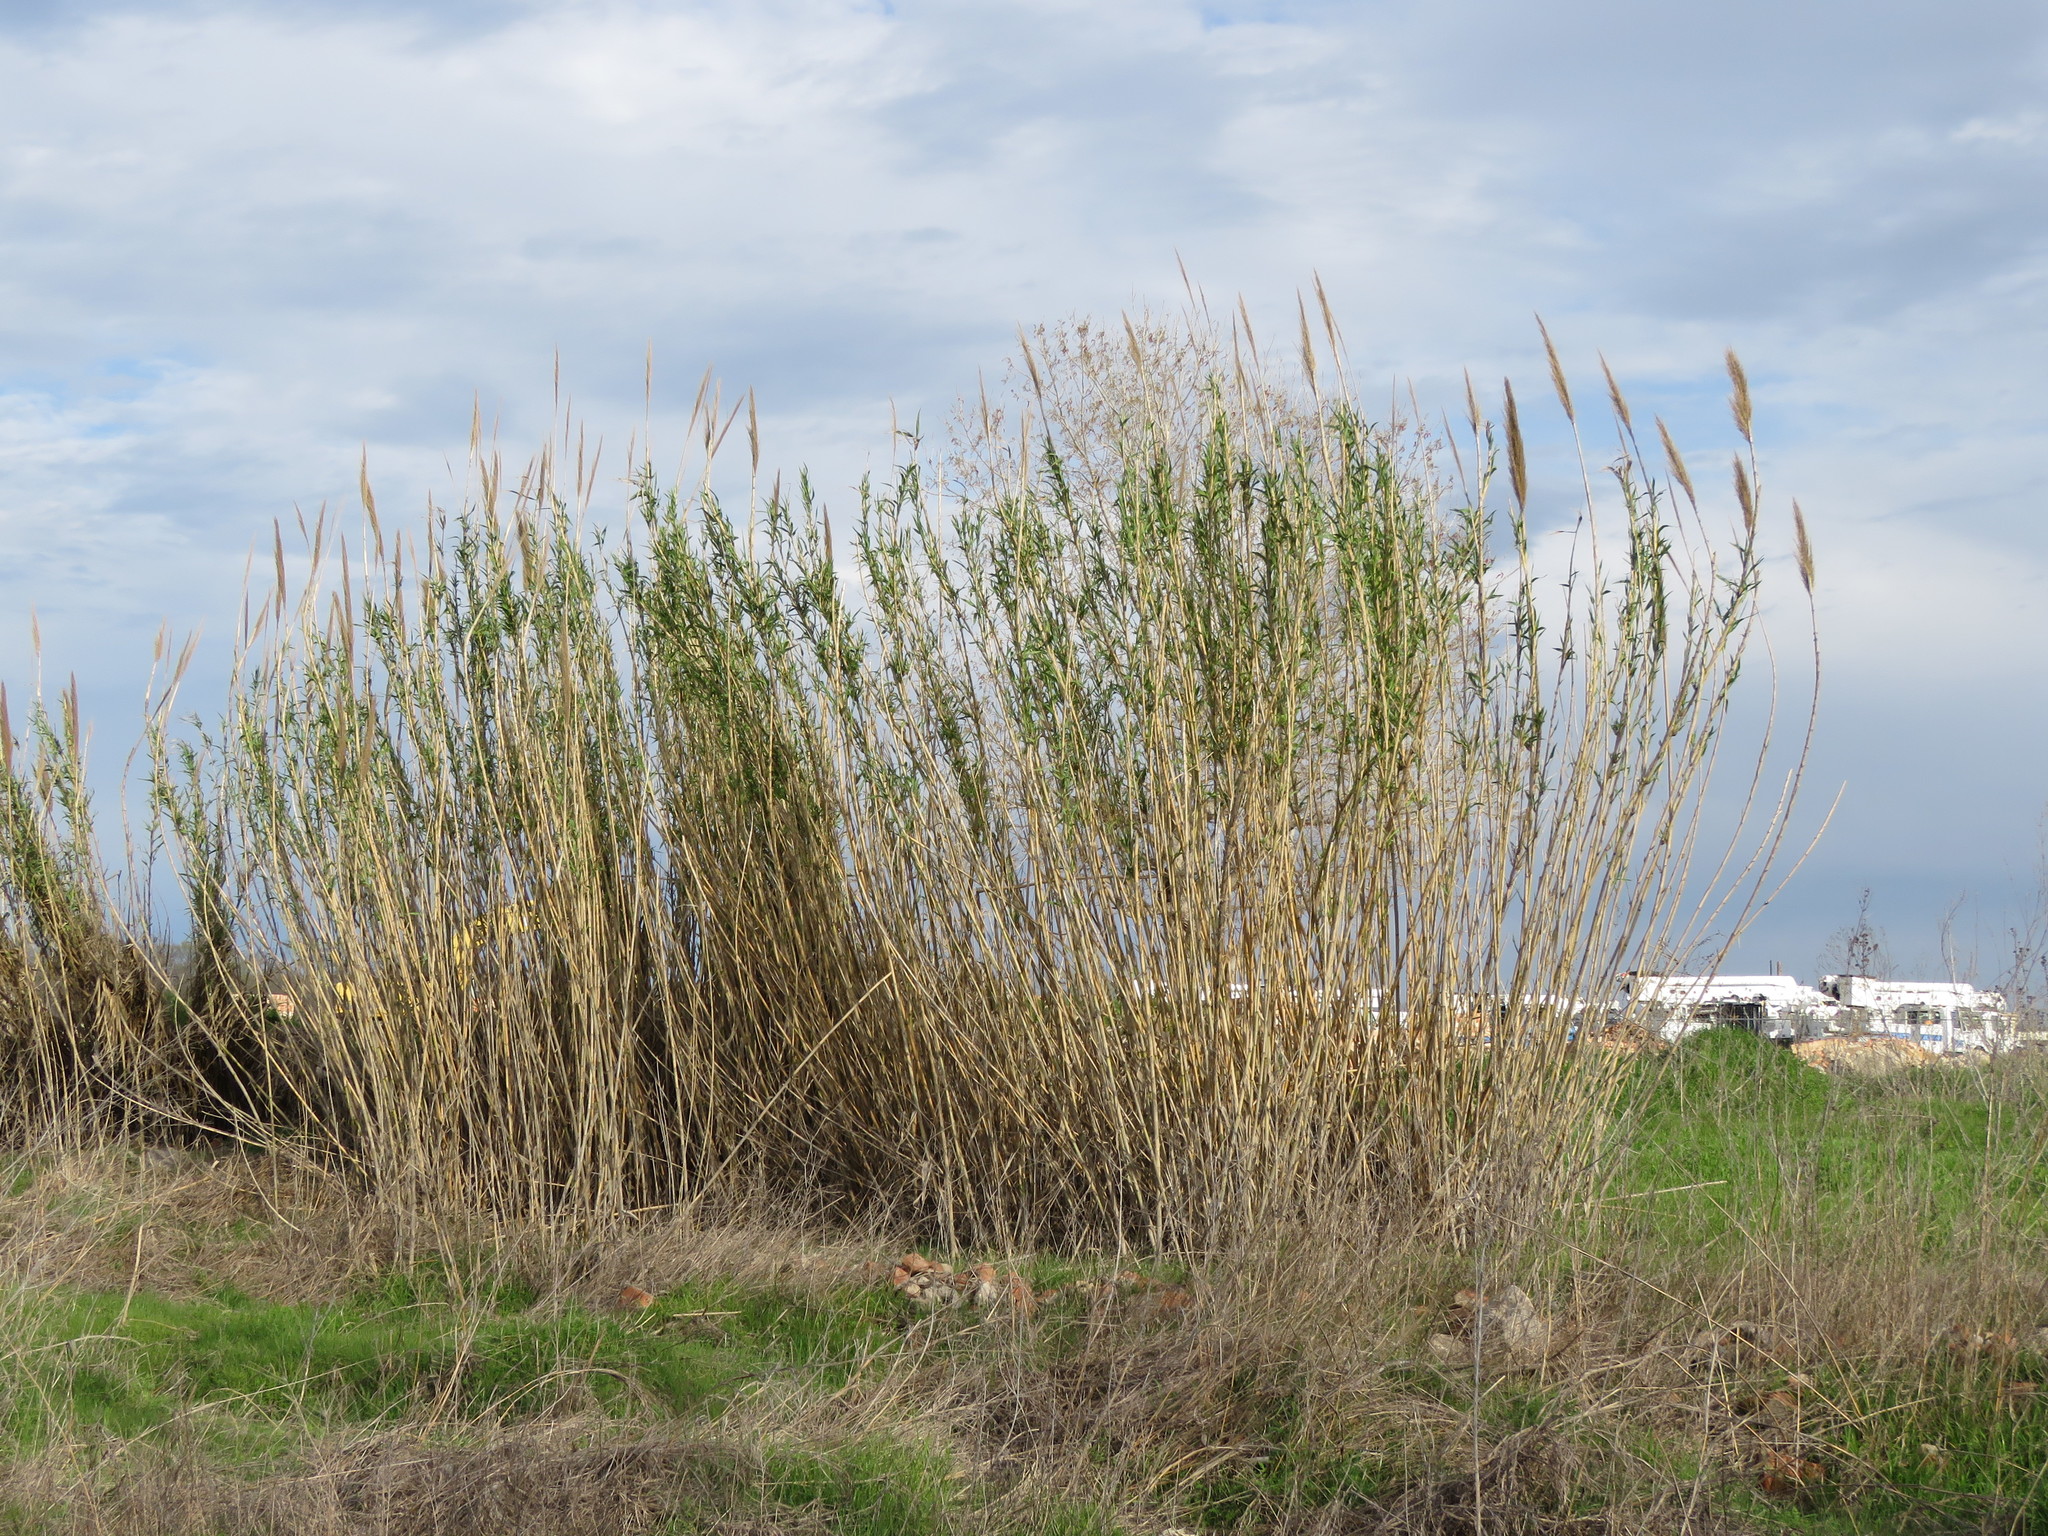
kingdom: Plantae
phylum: Tracheophyta
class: Liliopsida
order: Poales
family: Poaceae
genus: Arundo
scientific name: Arundo donax
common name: Giant reed
